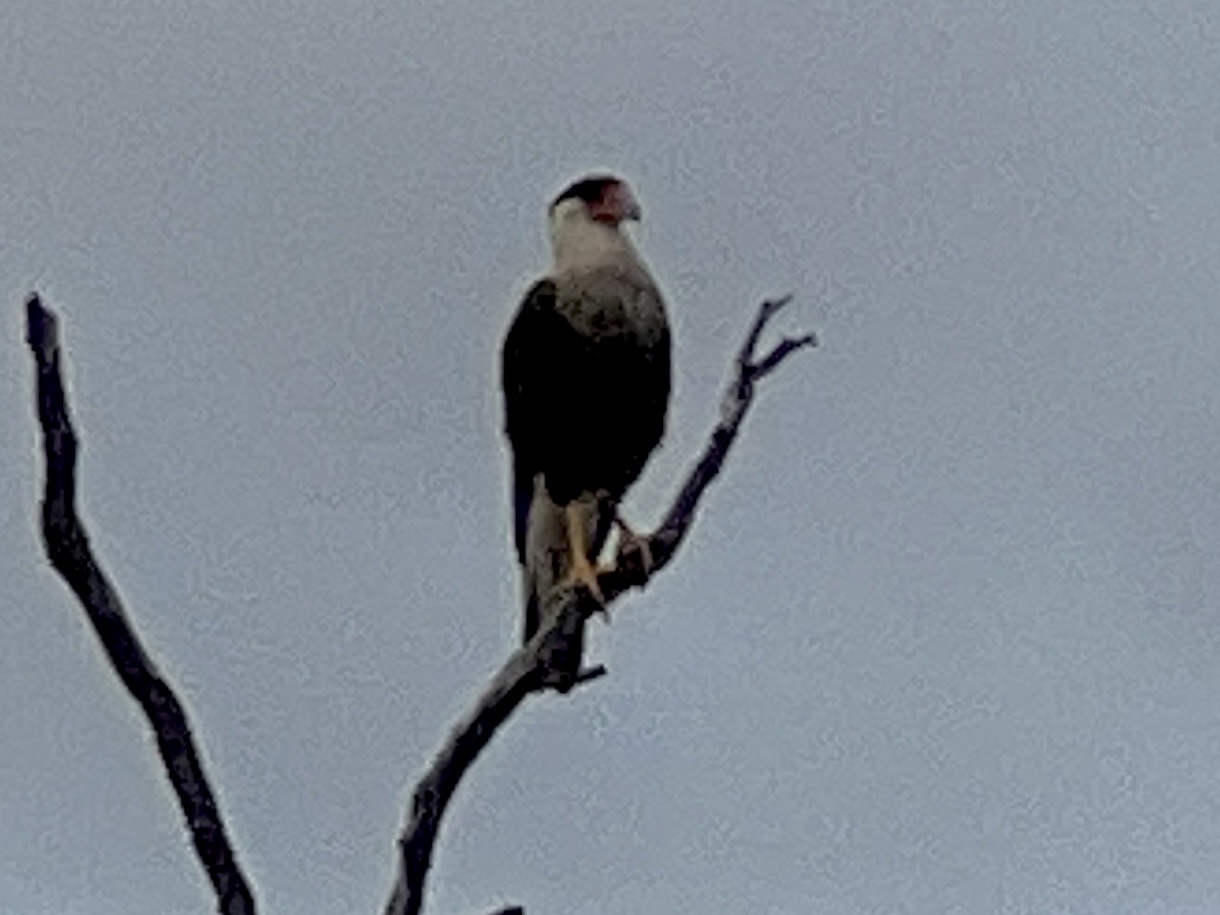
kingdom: Animalia
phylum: Chordata
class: Aves
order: Falconiformes
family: Falconidae
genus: Caracara
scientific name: Caracara plancus
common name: Southern caracara
